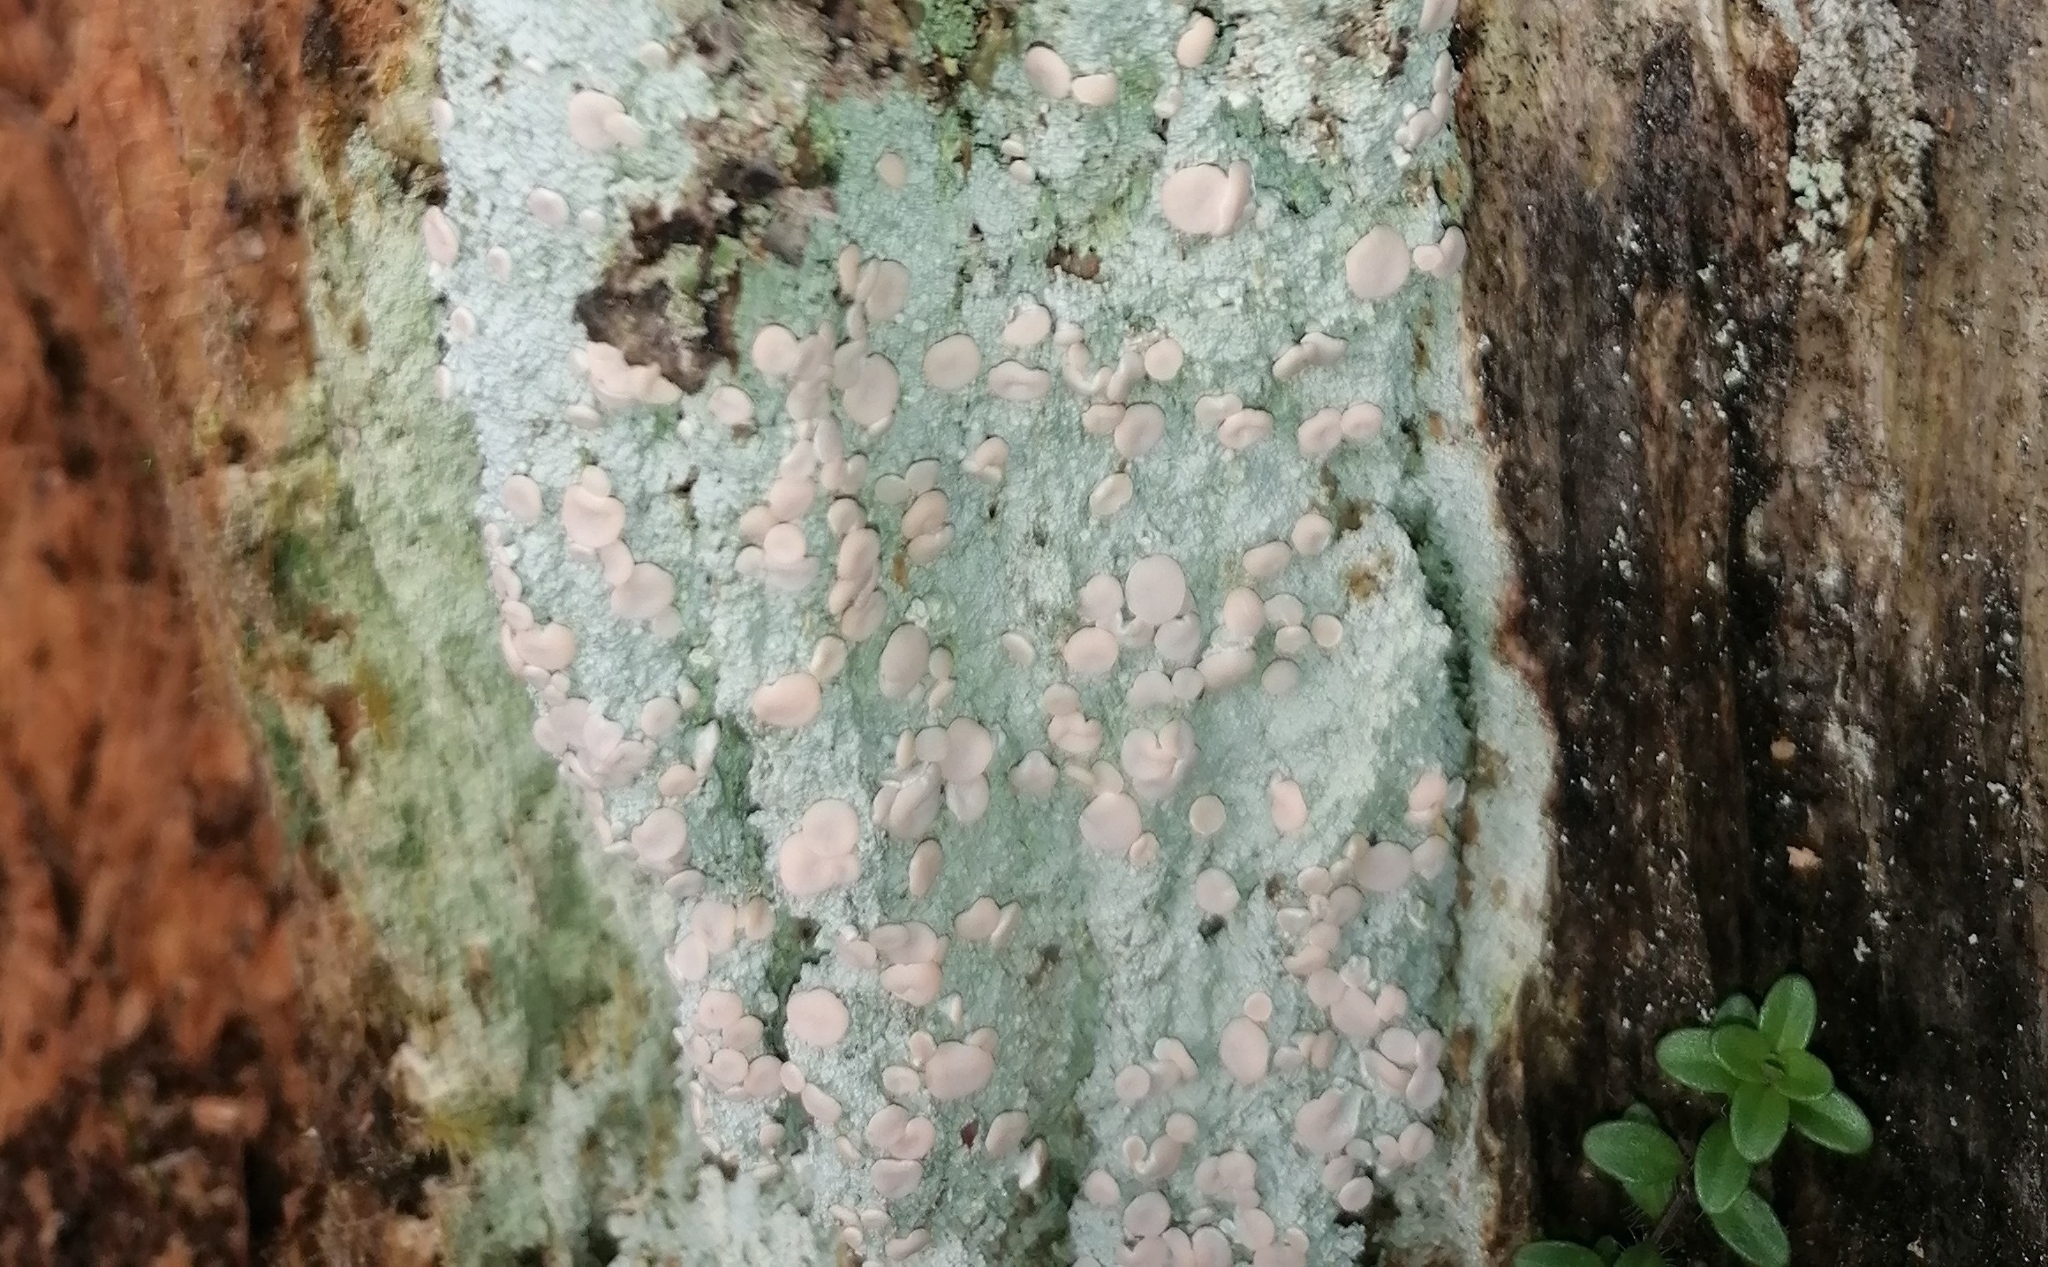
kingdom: Fungi
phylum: Ascomycota
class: Lecanoromycetes
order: Pertusariales
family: Icmadophilaceae
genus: Icmadophila
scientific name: Icmadophila ericetorum
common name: Candy lichen
